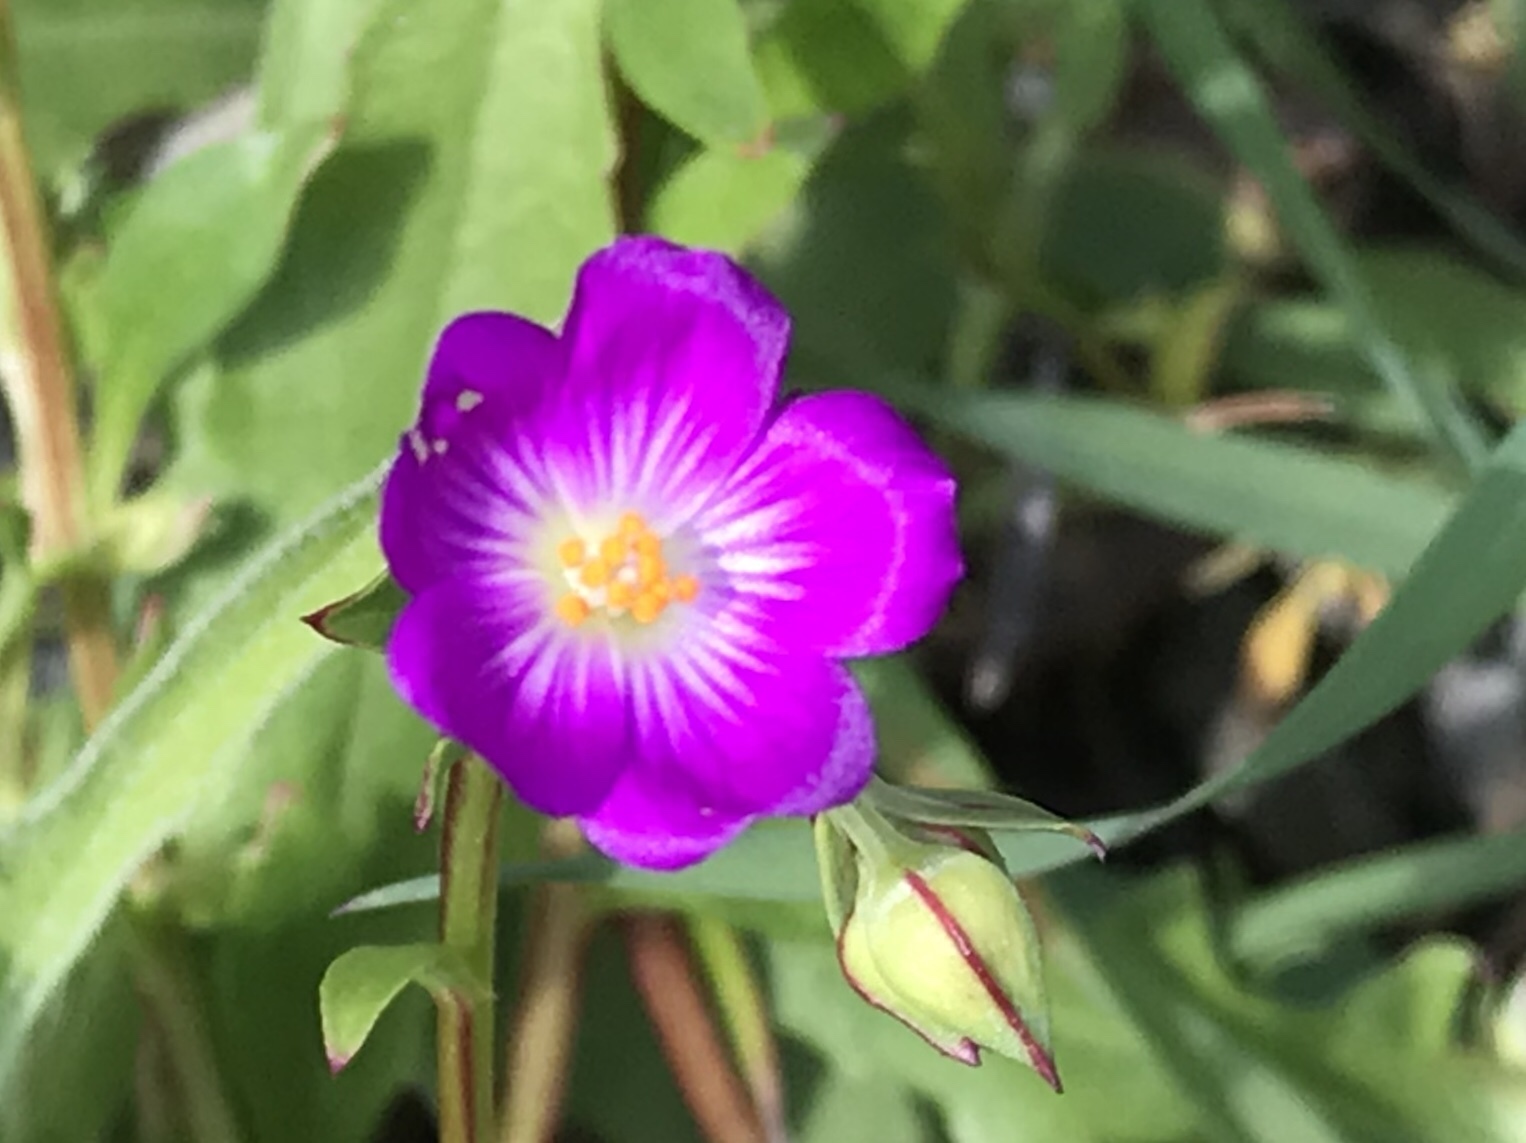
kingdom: Plantae
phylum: Tracheophyta
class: Magnoliopsida
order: Caryophyllales
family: Montiaceae
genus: Calandrinia
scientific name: Calandrinia menziesii
